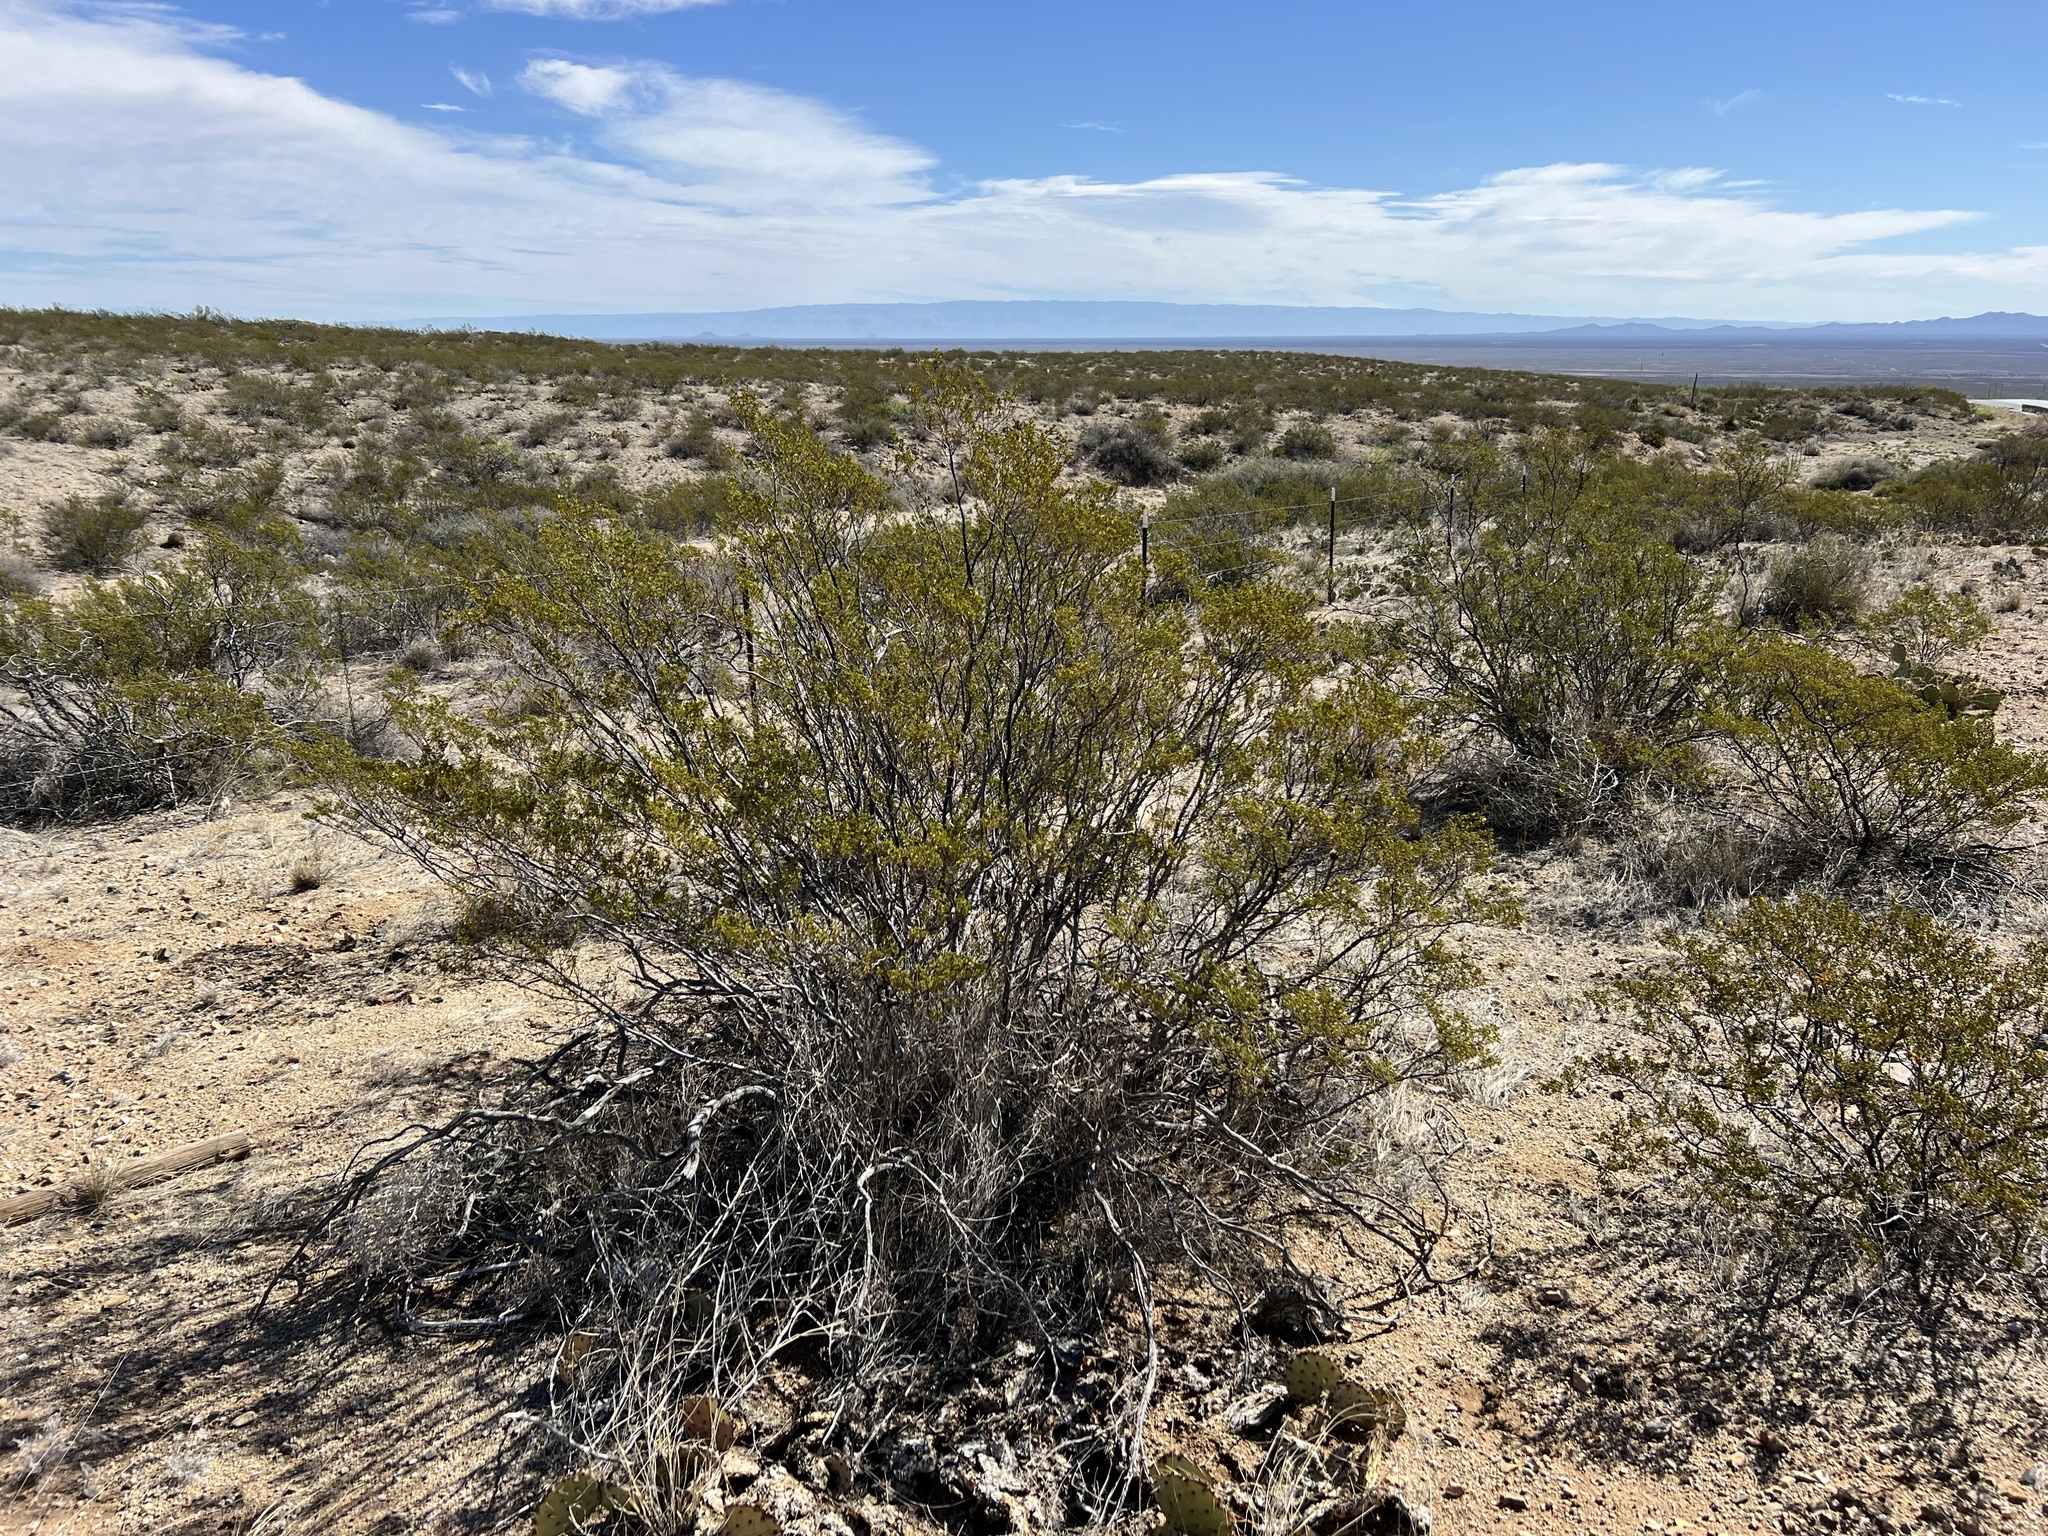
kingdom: Plantae
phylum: Tracheophyta
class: Magnoliopsida
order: Zygophyllales
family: Zygophyllaceae
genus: Larrea
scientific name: Larrea tridentata
